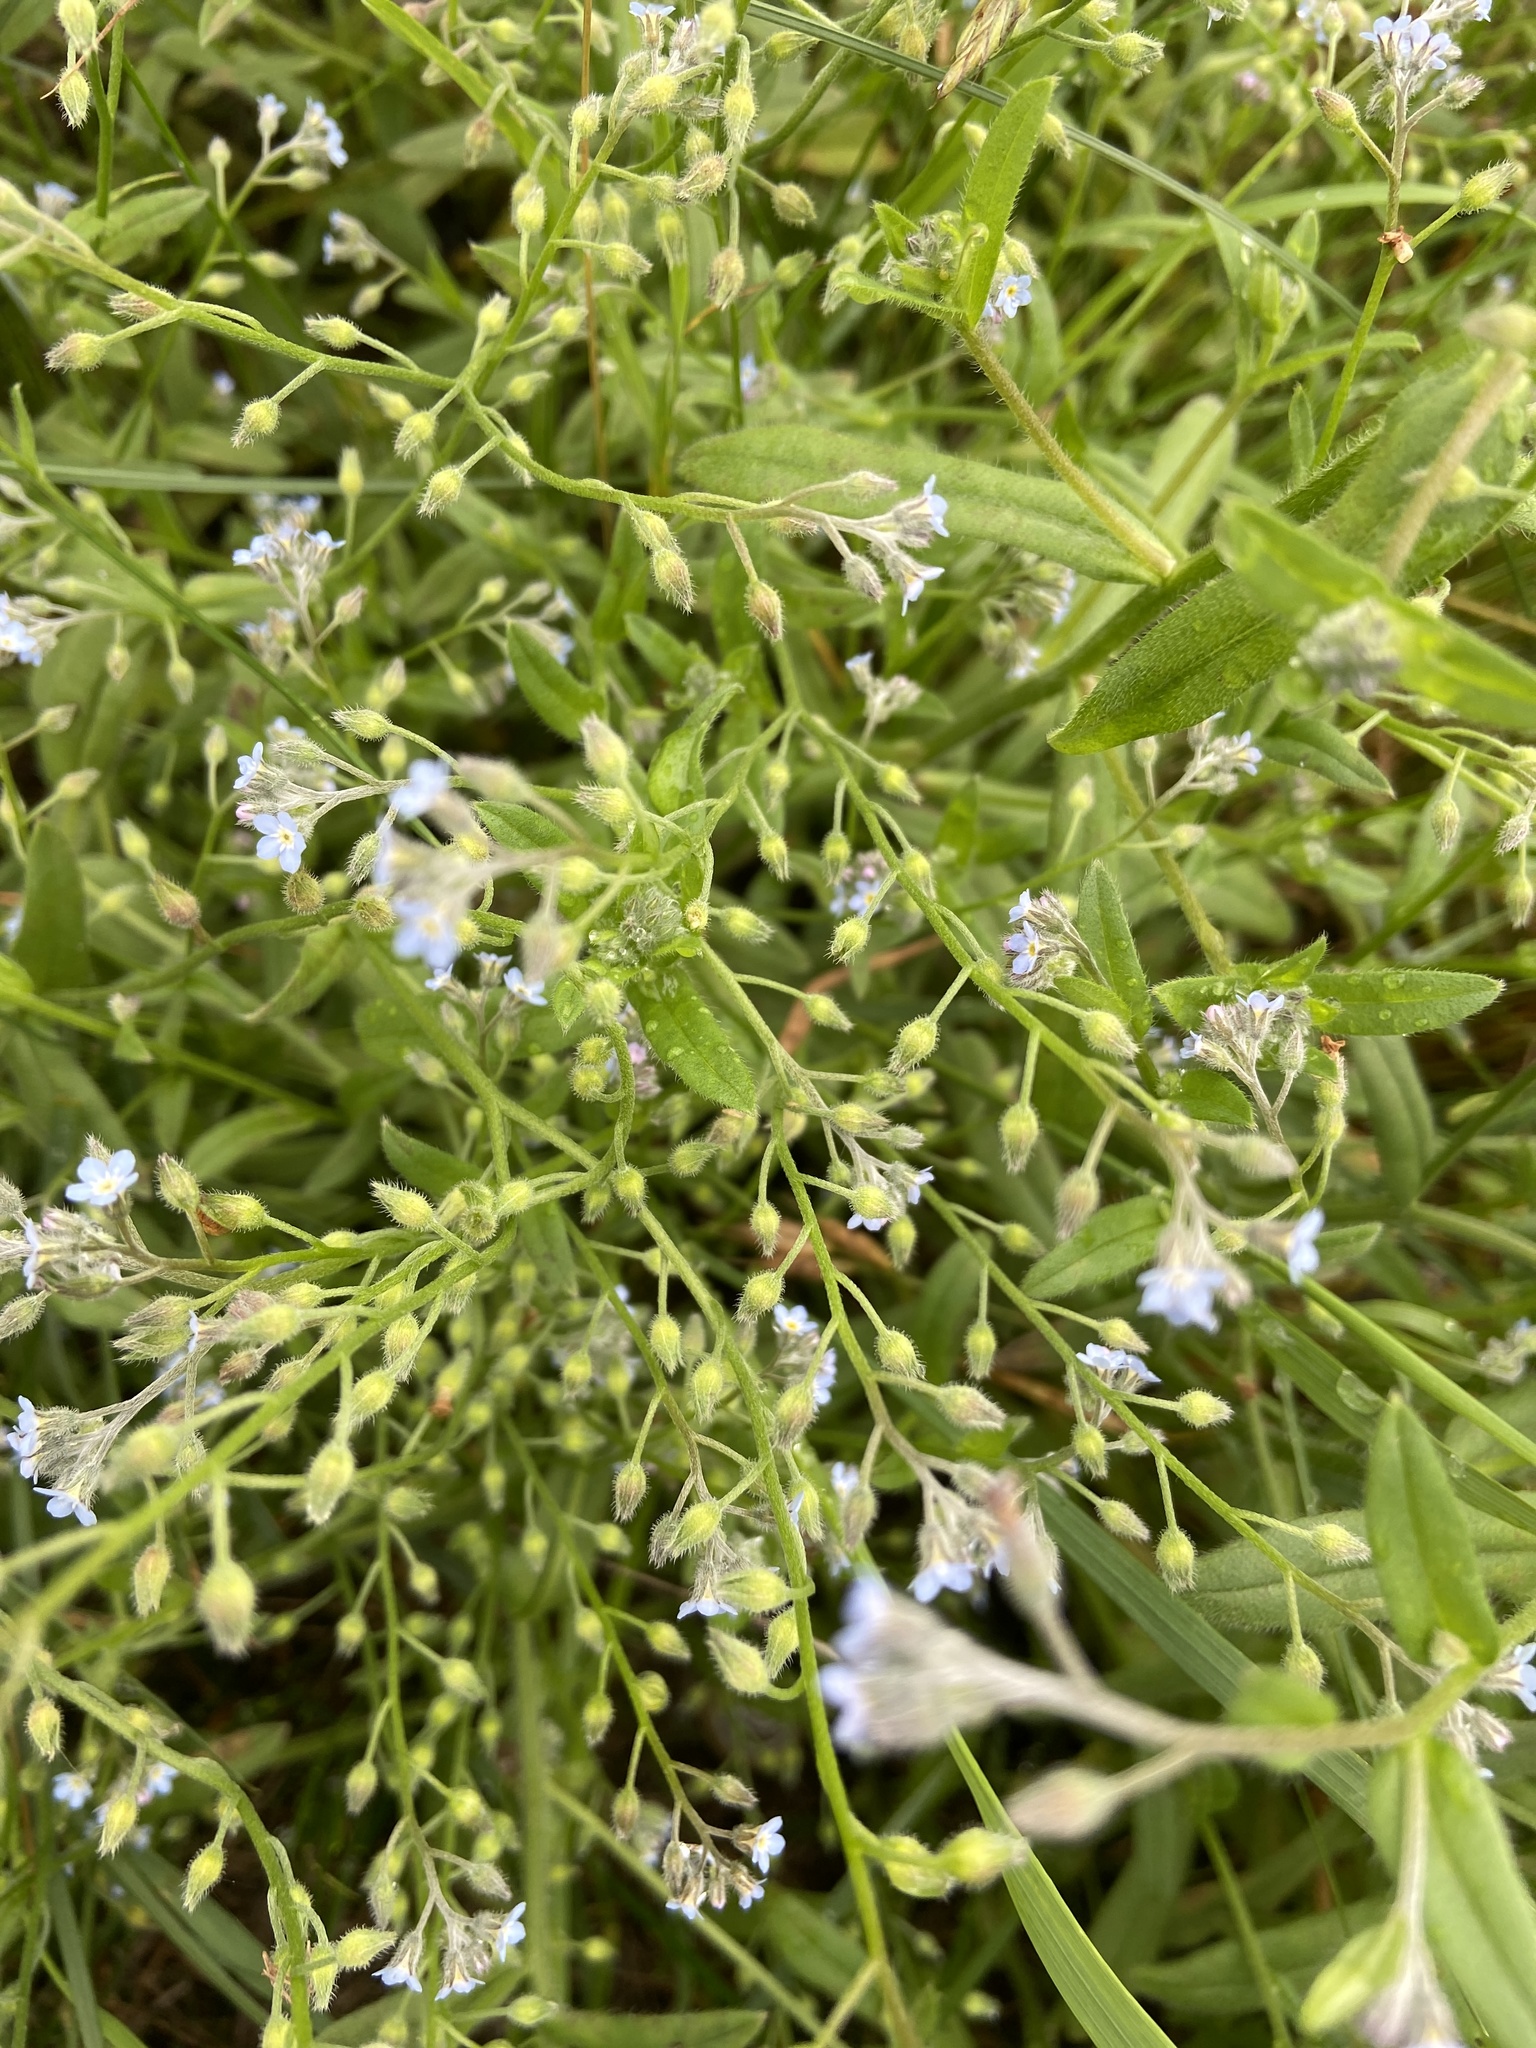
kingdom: Plantae
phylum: Tracheophyta
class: Magnoliopsida
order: Boraginales
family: Boraginaceae
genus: Myosotis
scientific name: Myosotis arvensis
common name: Field forget-me-not
